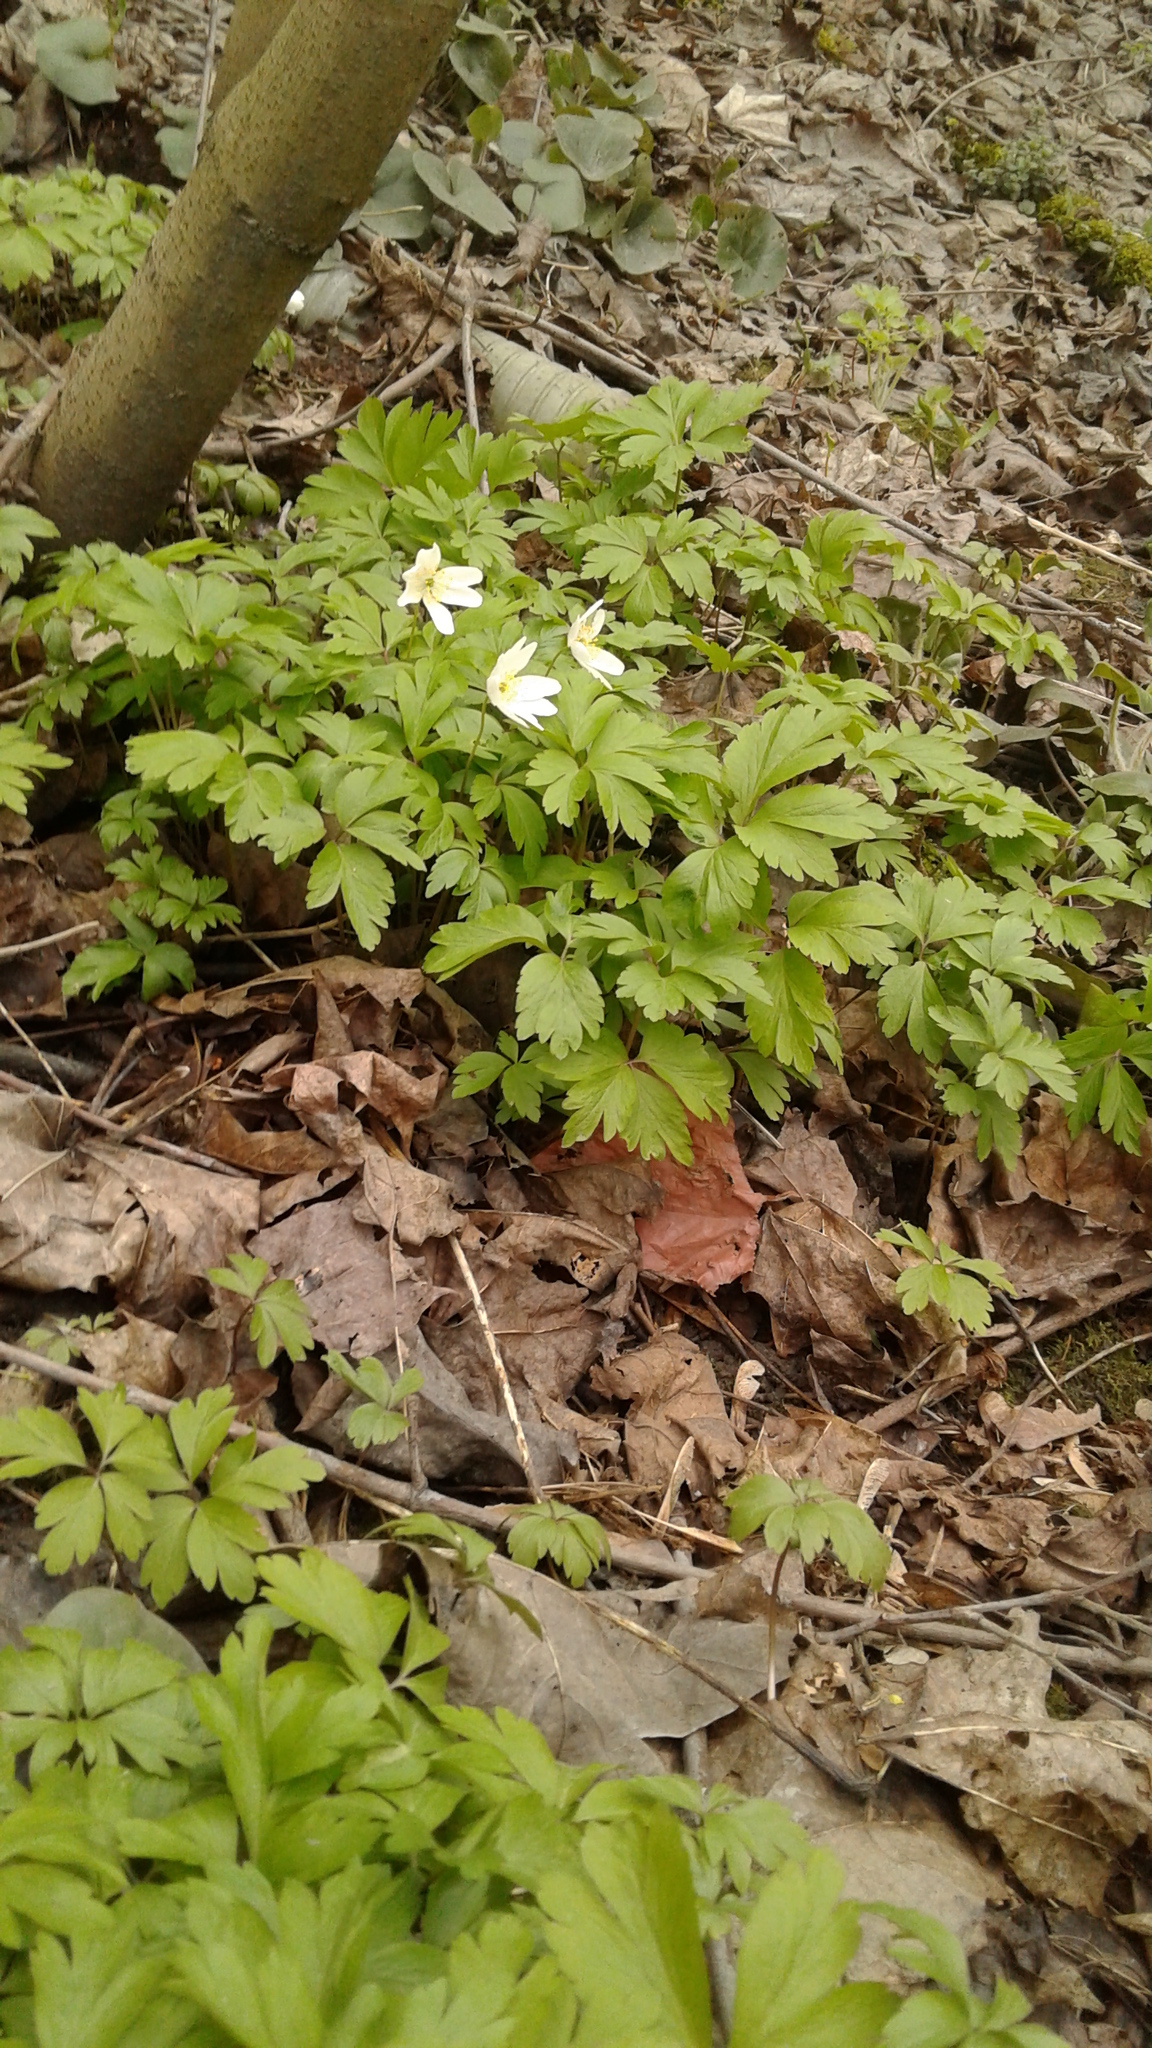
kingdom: Plantae
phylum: Tracheophyta
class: Magnoliopsida
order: Ranunculales
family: Ranunculaceae
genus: Anemone
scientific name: Anemone nemorosa
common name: Wood anemone
